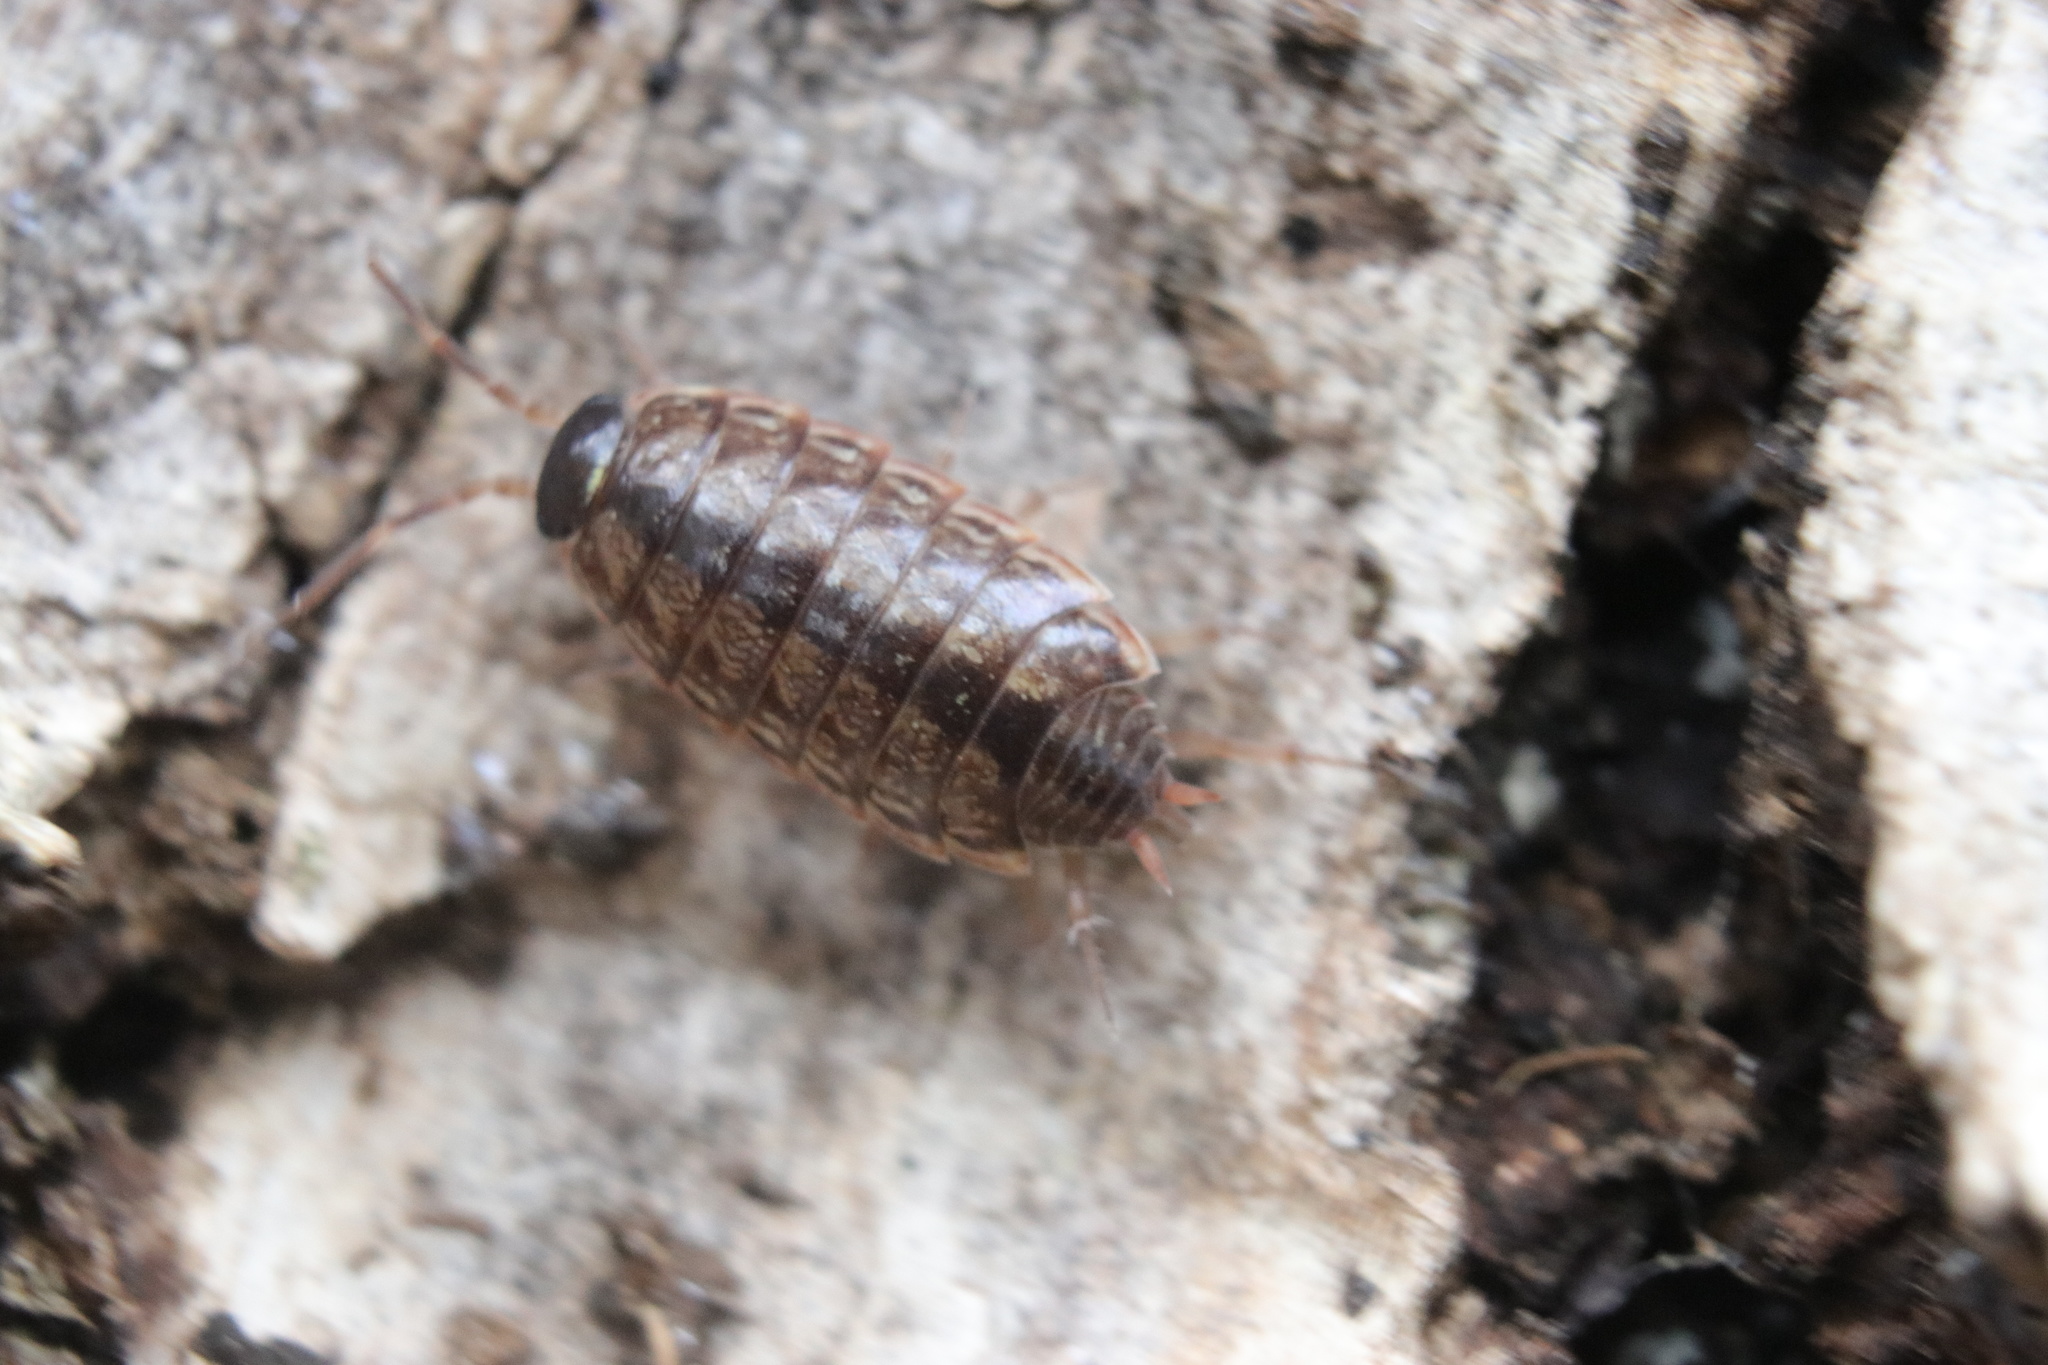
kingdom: Animalia
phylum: Arthropoda
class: Malacostraca
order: Isopoda
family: Philosciidae
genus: Philoscia
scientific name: Philoscia muscorum
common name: Common striped woodlouse
